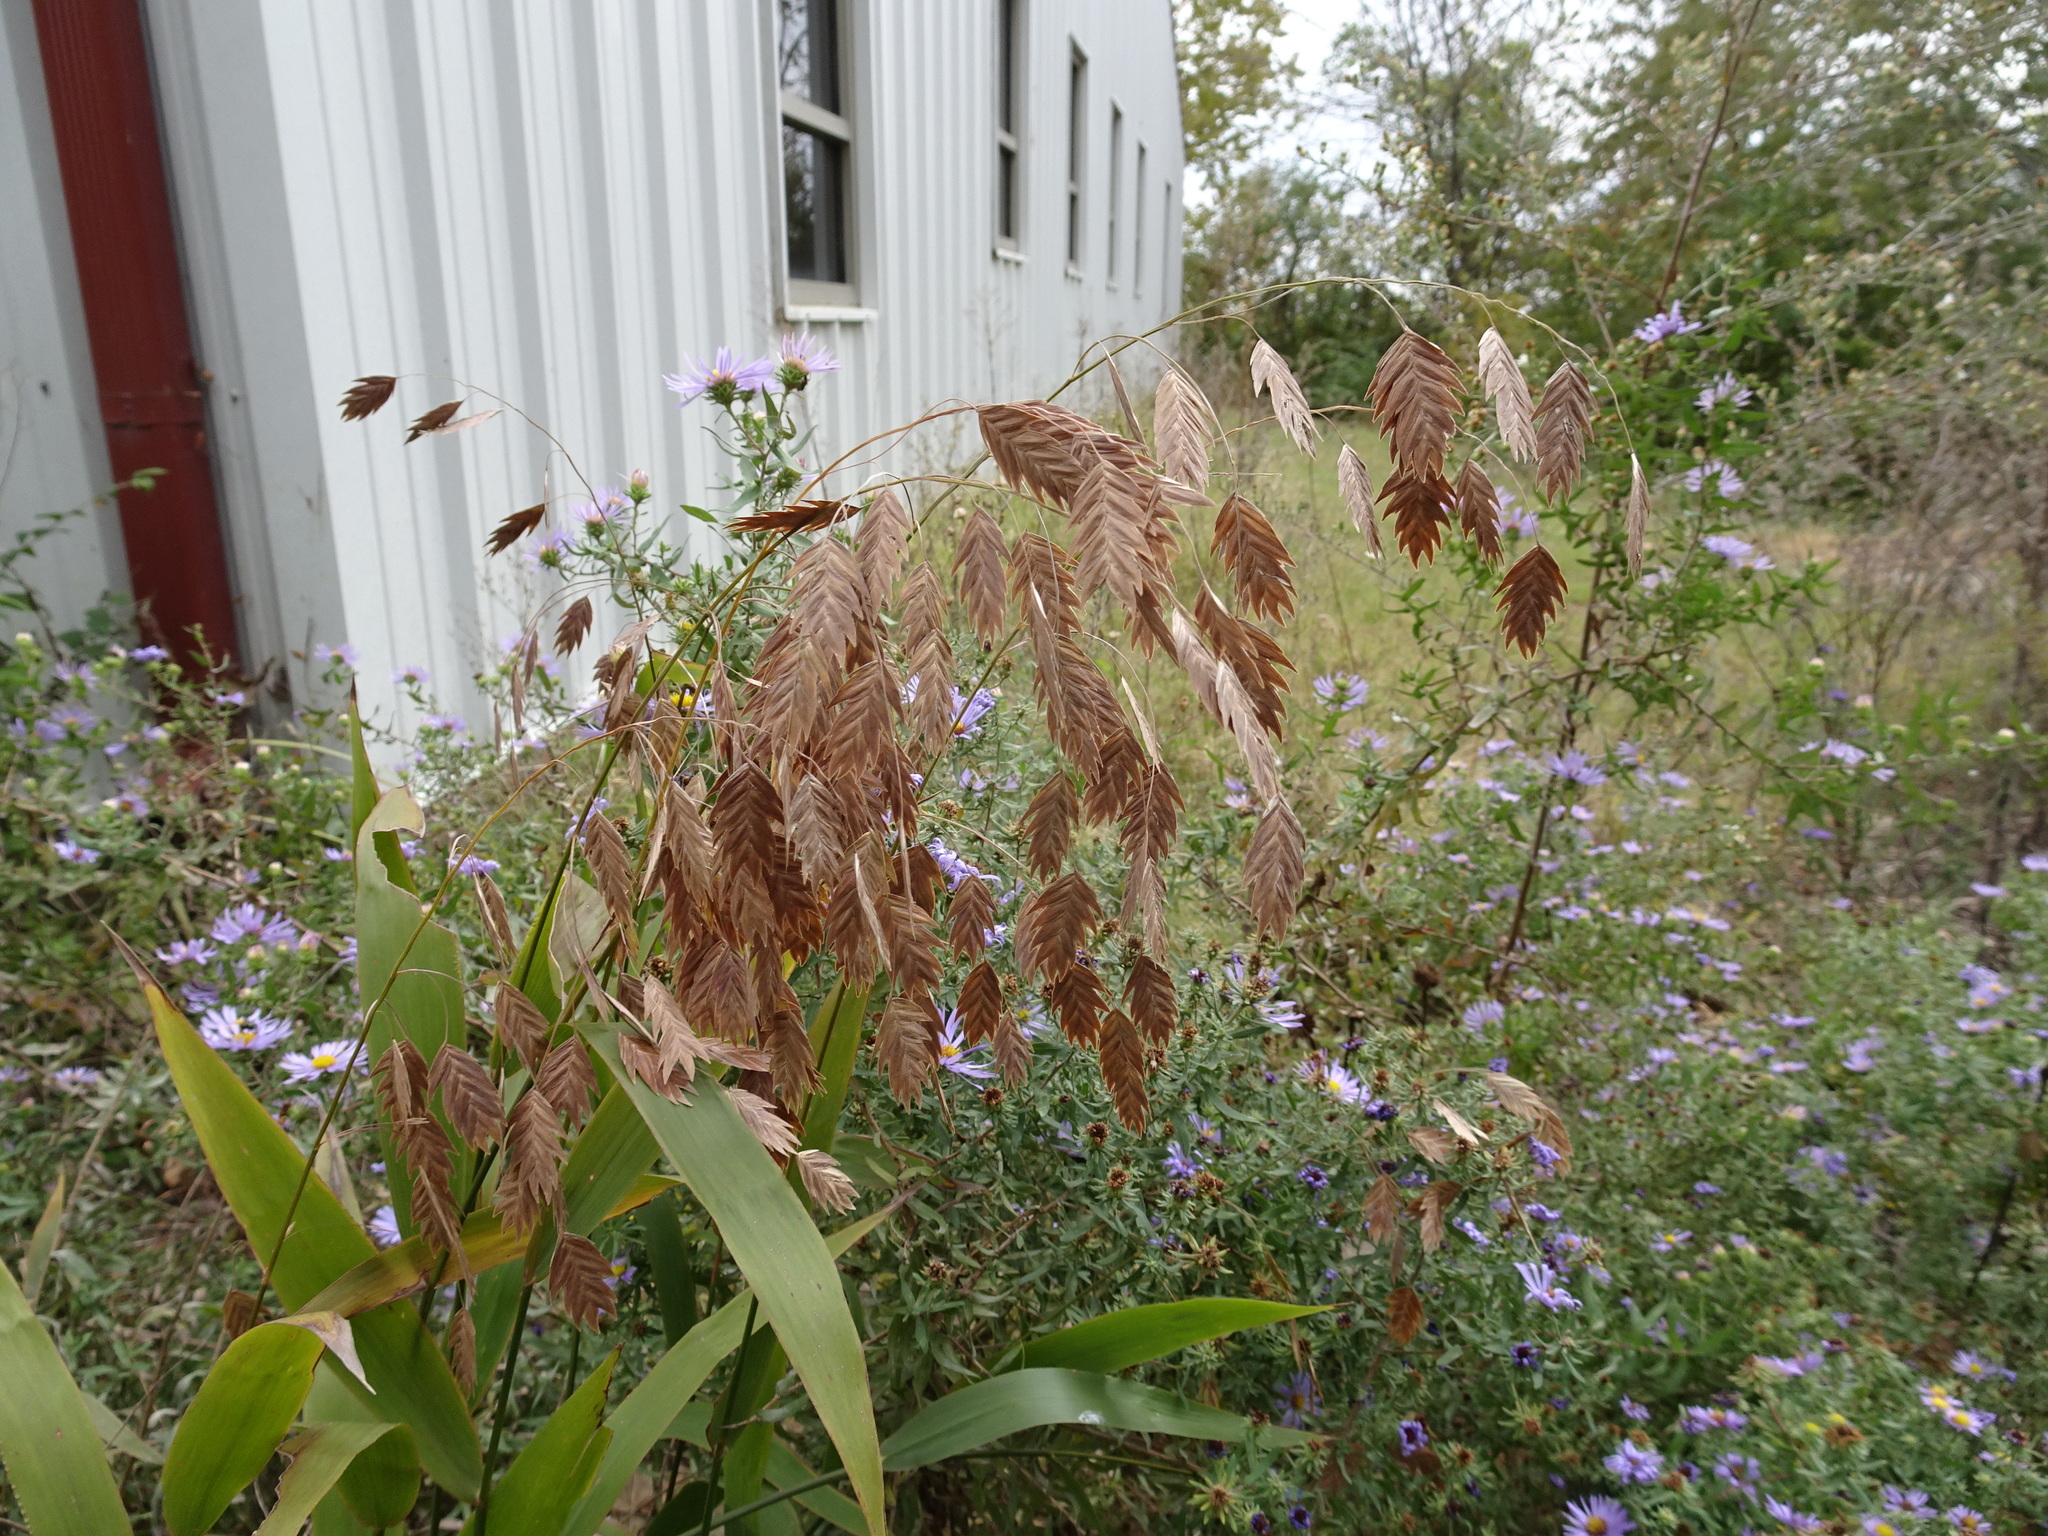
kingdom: Plantae
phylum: Tracheophyta
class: Liliopsida
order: Poales
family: Poaceae
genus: Chasmanthium
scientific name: Chasmanthium latifolium
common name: Broad-leaved chasmanthium
